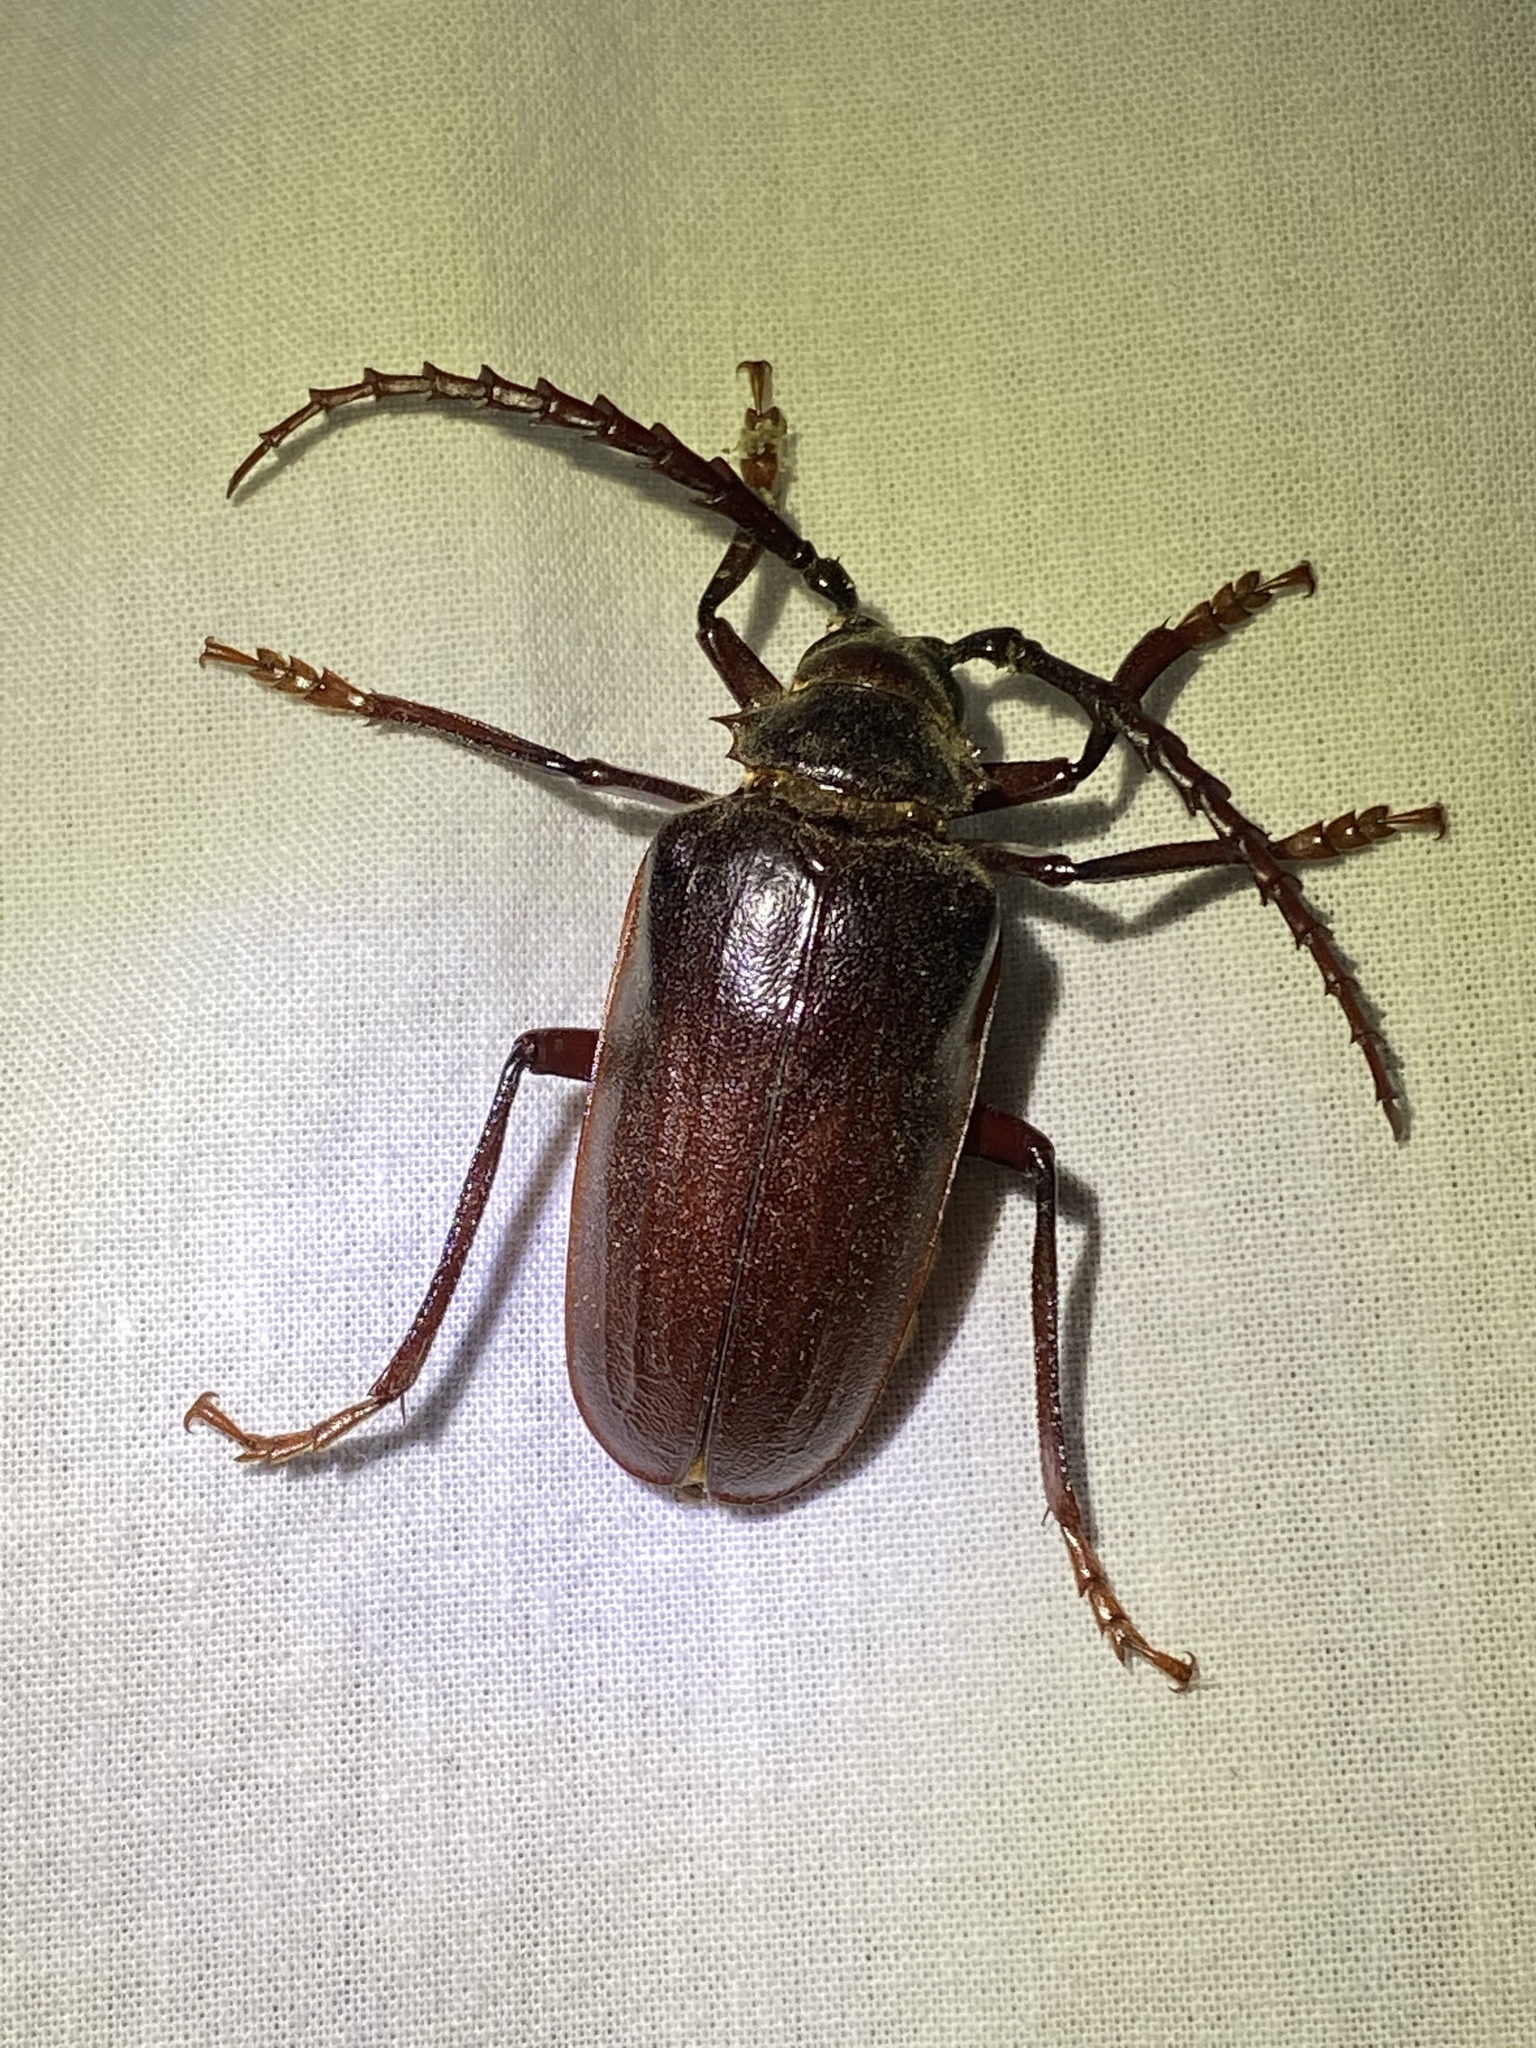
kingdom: Animalia
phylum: Arthropoda
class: Insecta
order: Coleoptera
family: Cerambycidae
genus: Prionus
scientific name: Prionus californicus
